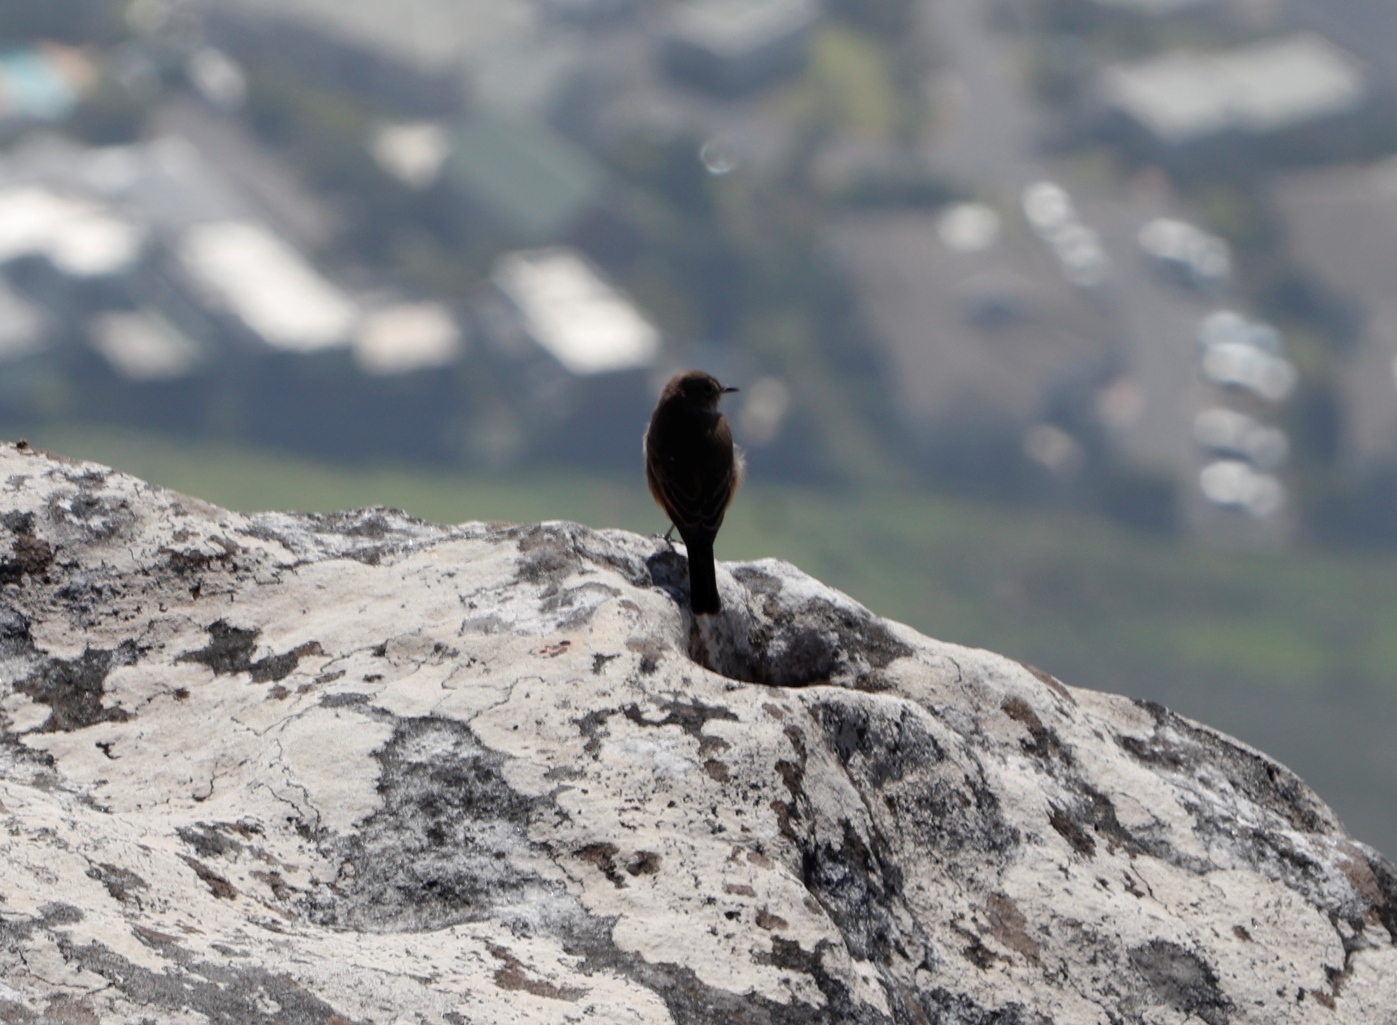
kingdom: Animalia
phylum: Chordata
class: Aves
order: Passeriformes
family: Muscicapidae
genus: Oenanthe
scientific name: Oenanthe familiaris
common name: Familiar chat
